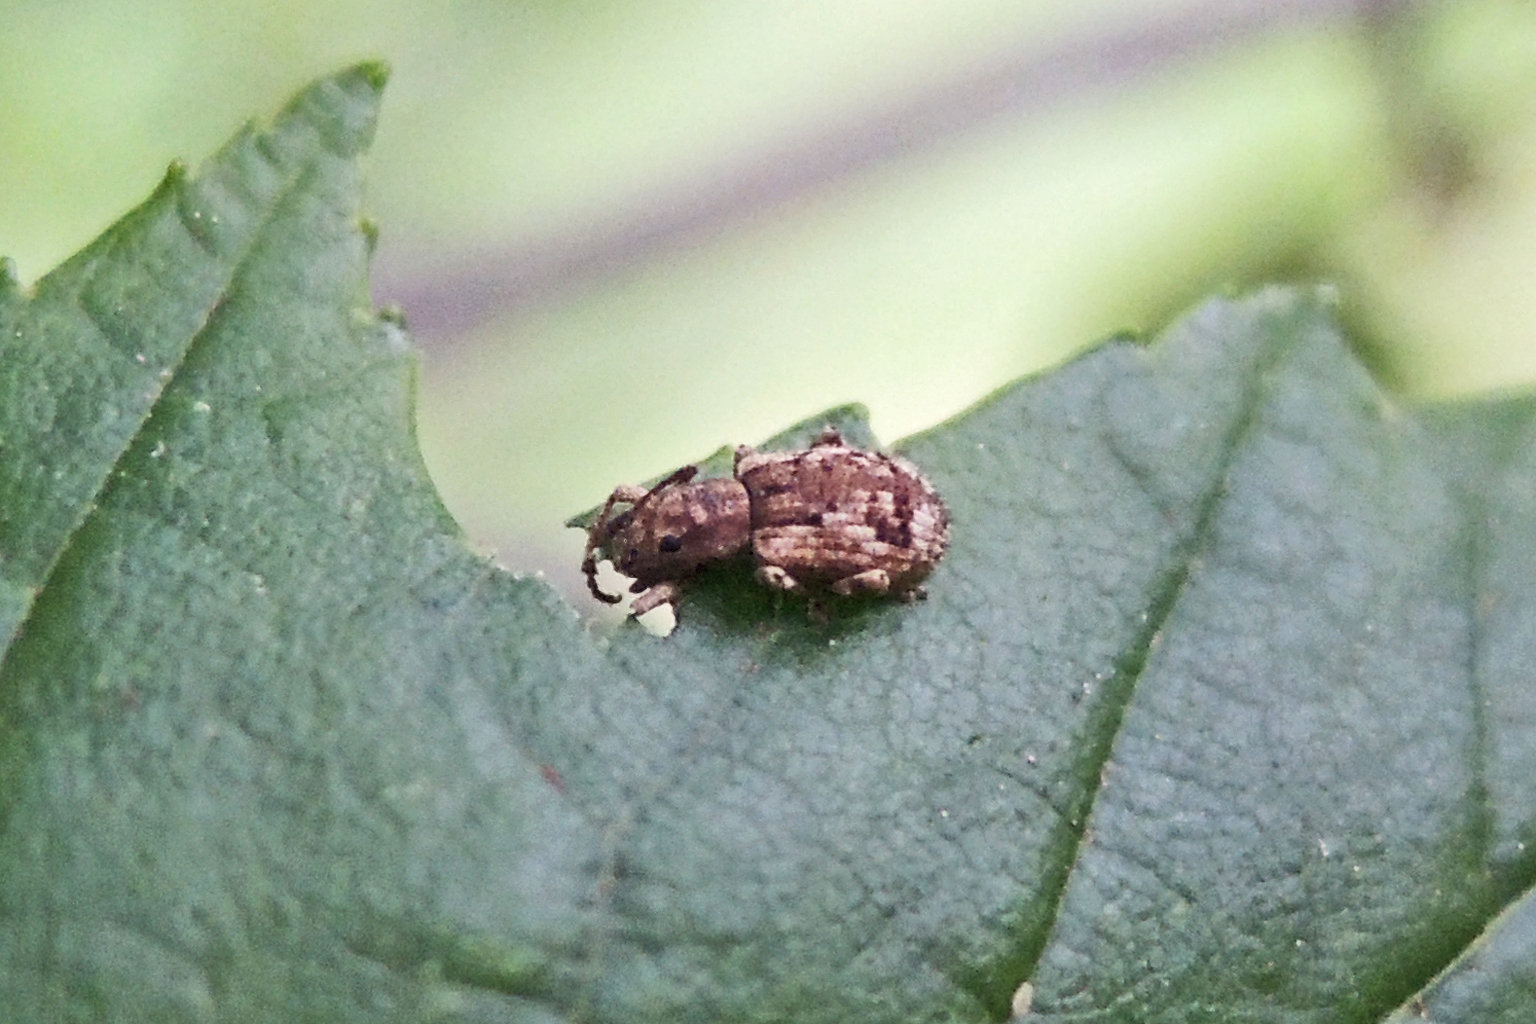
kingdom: Animalia
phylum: Arthropoda
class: Insecta
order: Coleoptera
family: Curculionidae
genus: Pseudoedophrys
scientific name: Pseudoedophrys hilleri
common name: Weevil
